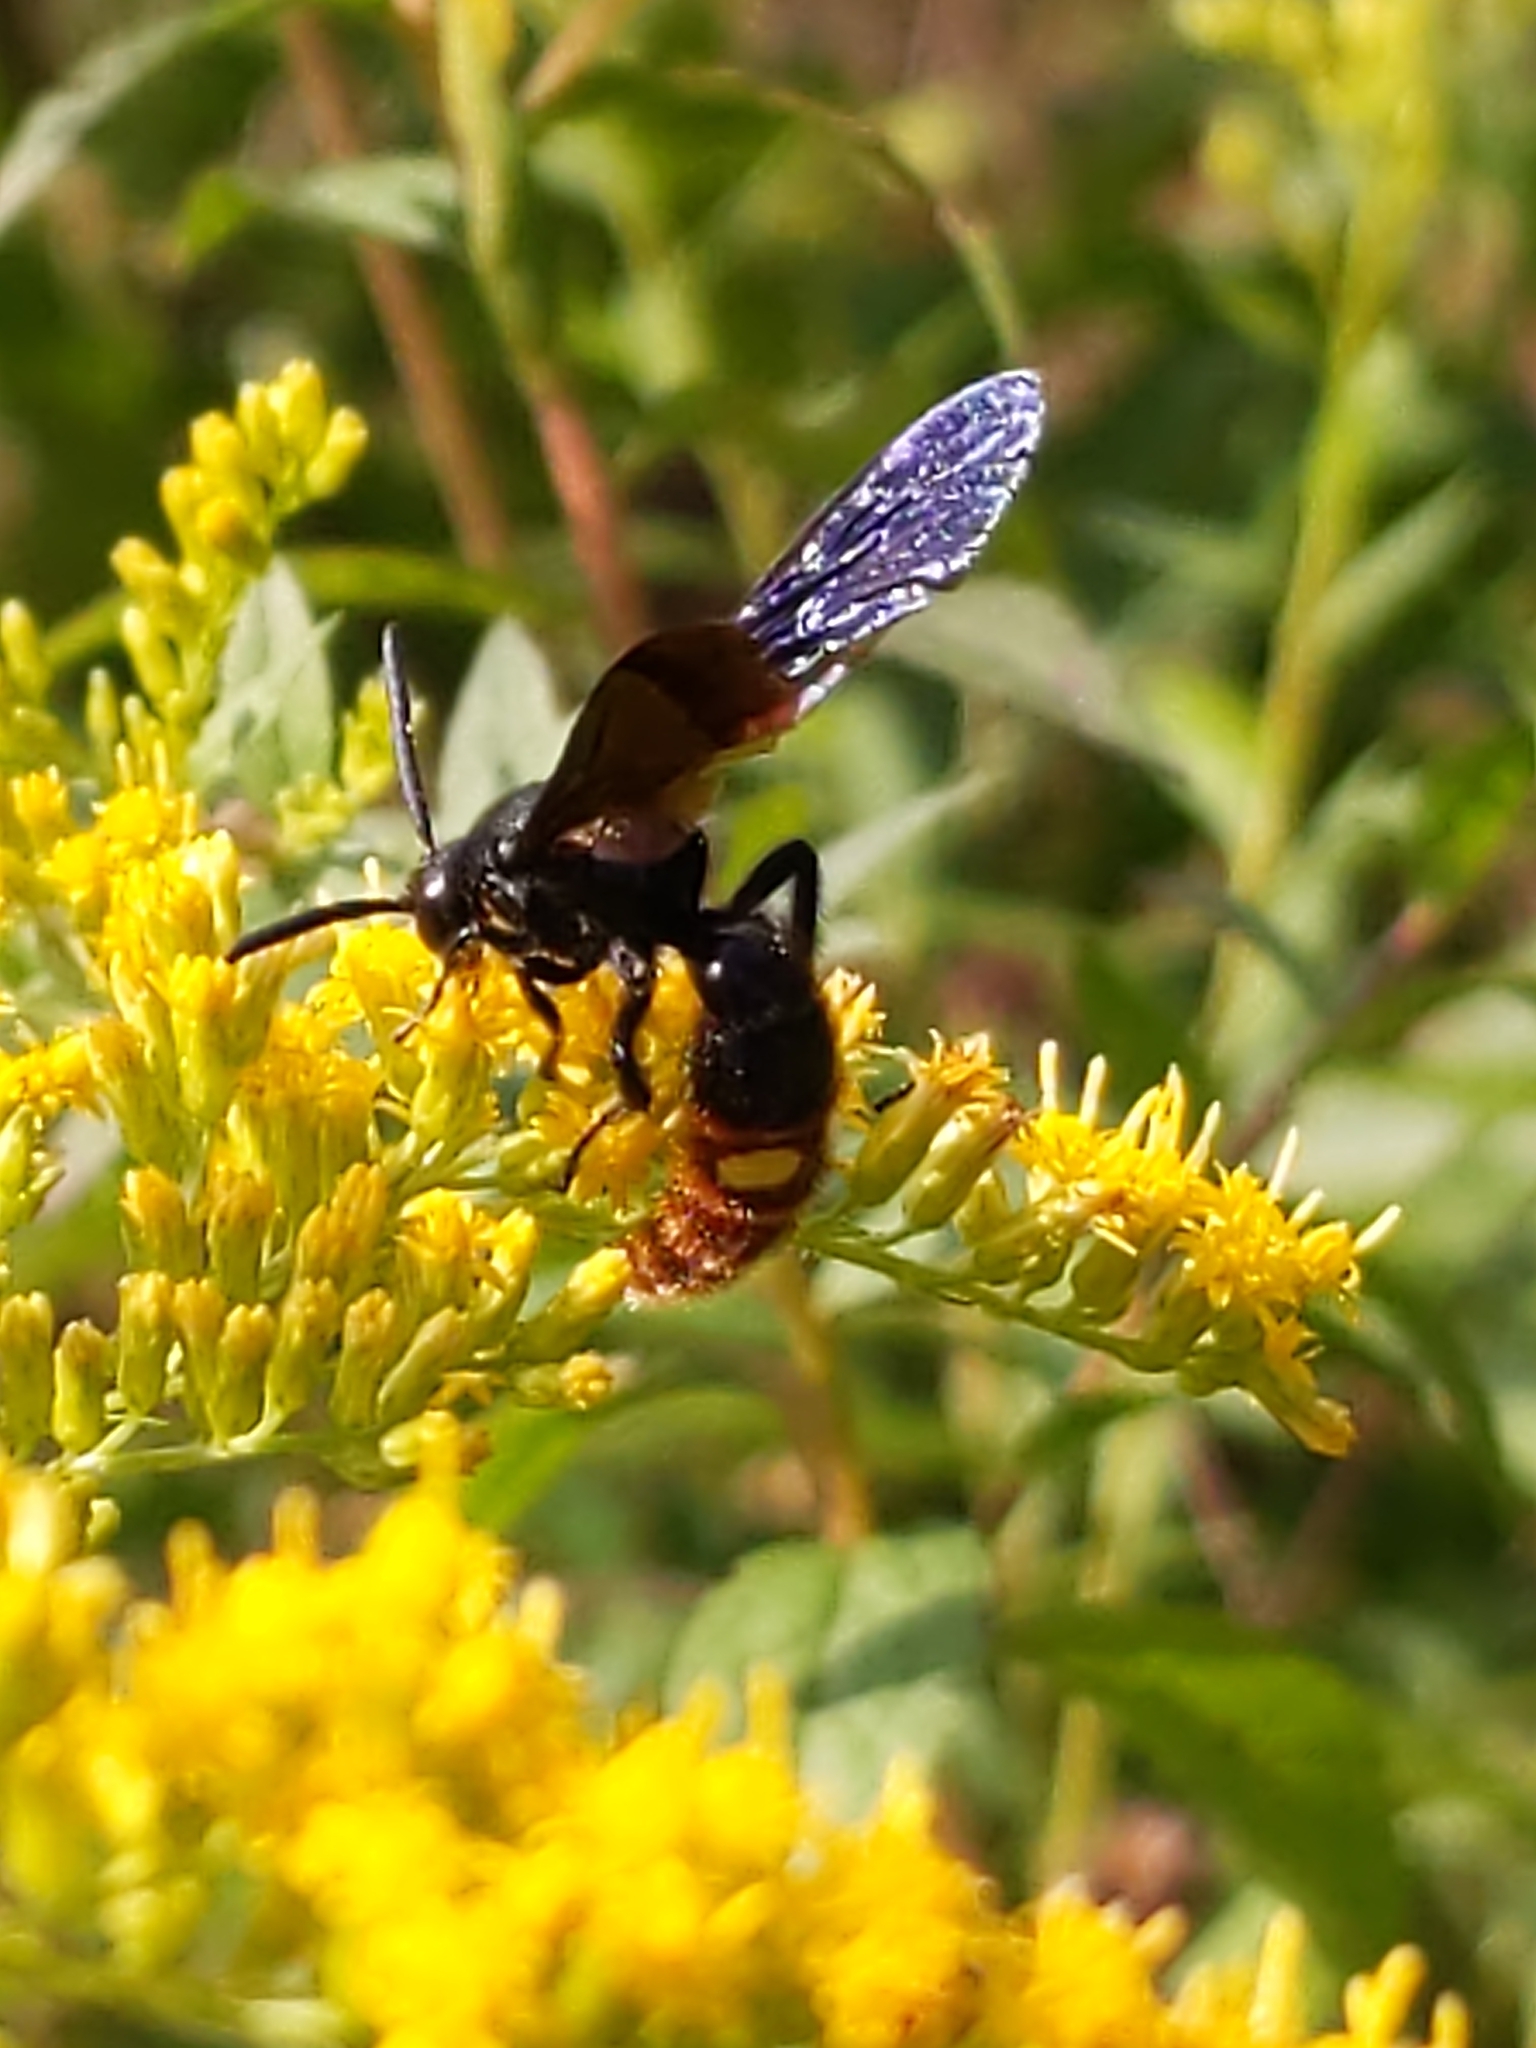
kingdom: Animalia
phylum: Arthropoda
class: Insecta
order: Hymenoptera
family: Scoliidae
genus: Scolia
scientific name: Scolia dubia
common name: Blue-winged scoliid wasp
